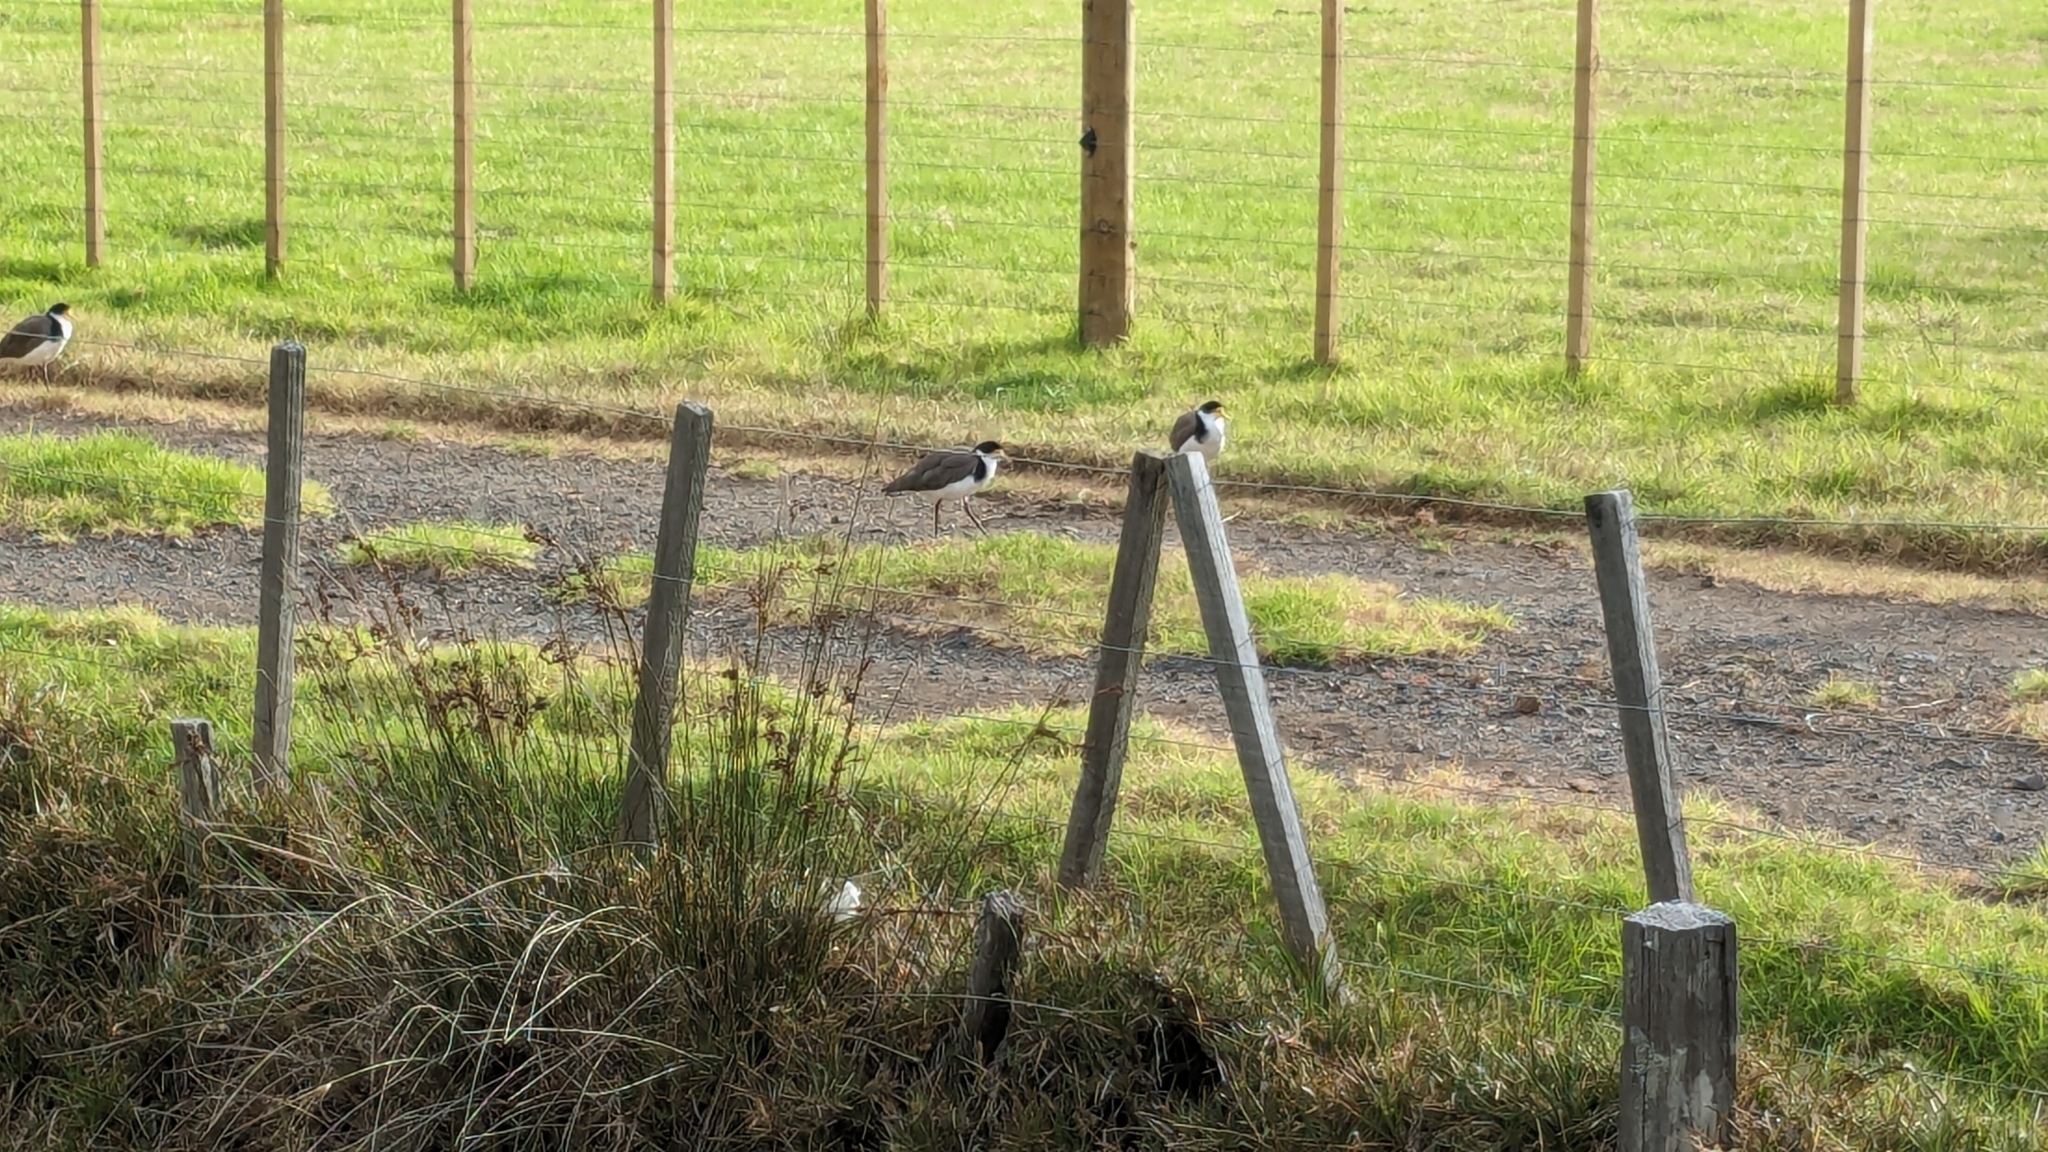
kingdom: Animalia
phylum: Chordata
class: Aves
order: Charadriiformes
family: Charadriidae
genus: Vanellus
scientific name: Vanellus miles
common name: Masked lapwing
